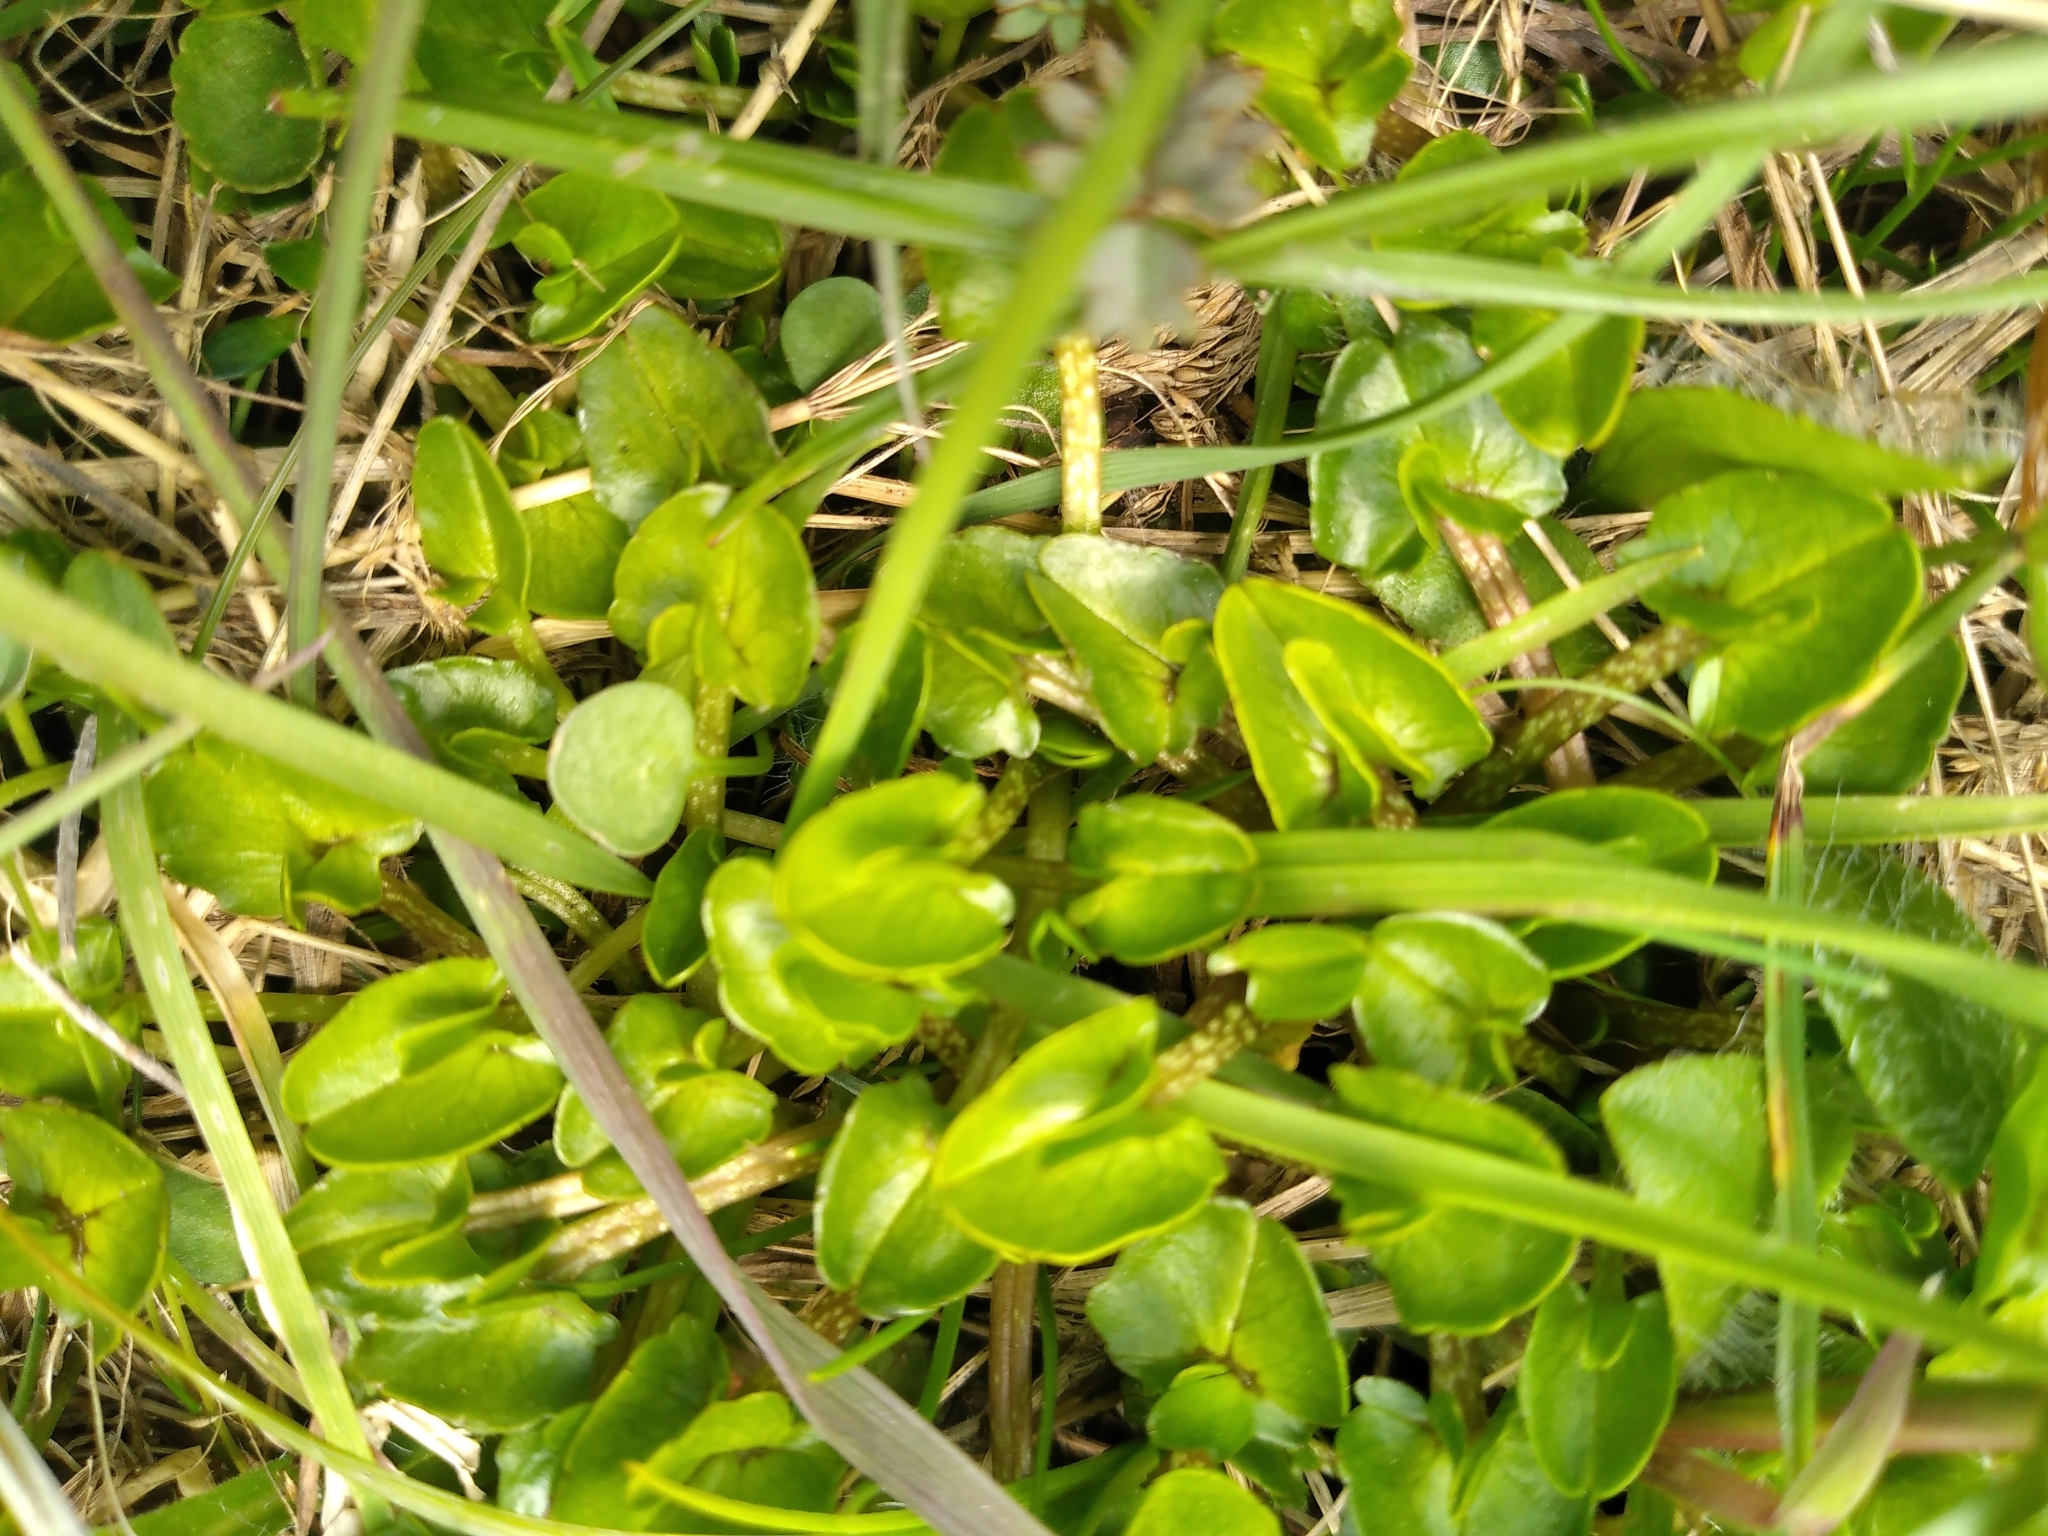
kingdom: Plantae
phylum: Tracheophyta
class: Magnoliopsida
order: Ranunculales
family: Ranunculaceae
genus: Caltha
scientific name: Caltha obtusa
